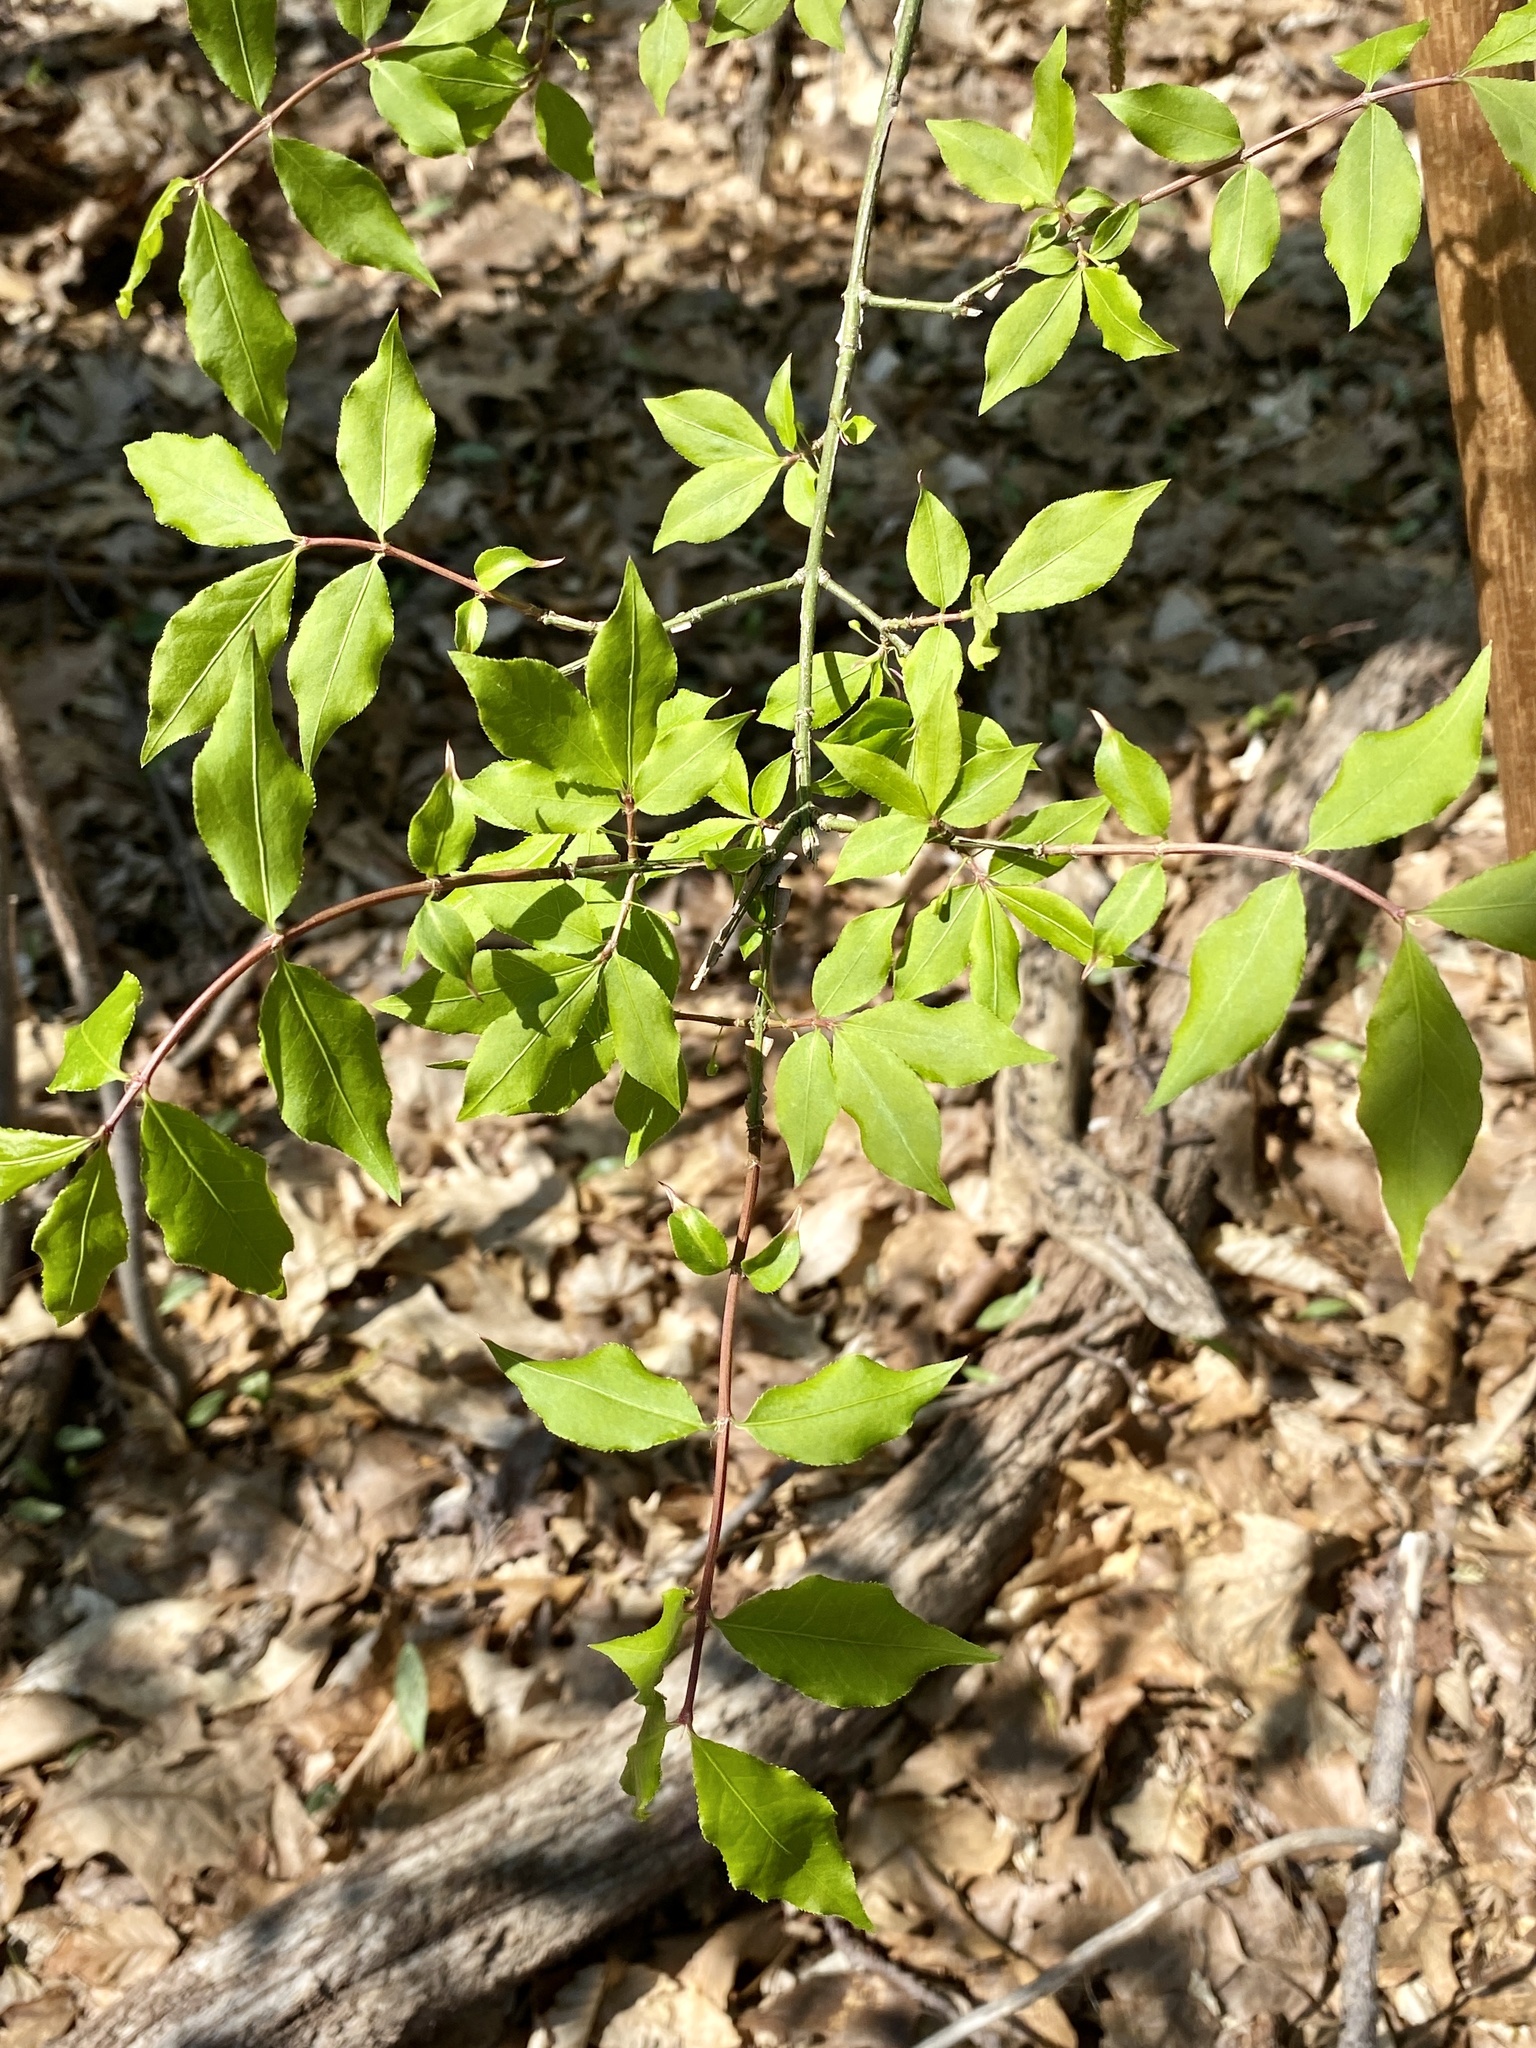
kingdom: Plantae
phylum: Tracheophyta
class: Magnoliopsida
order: Celastrales
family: Celastraceae
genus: Euonymus
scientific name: Euonymus alatus
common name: Winged euonymus
